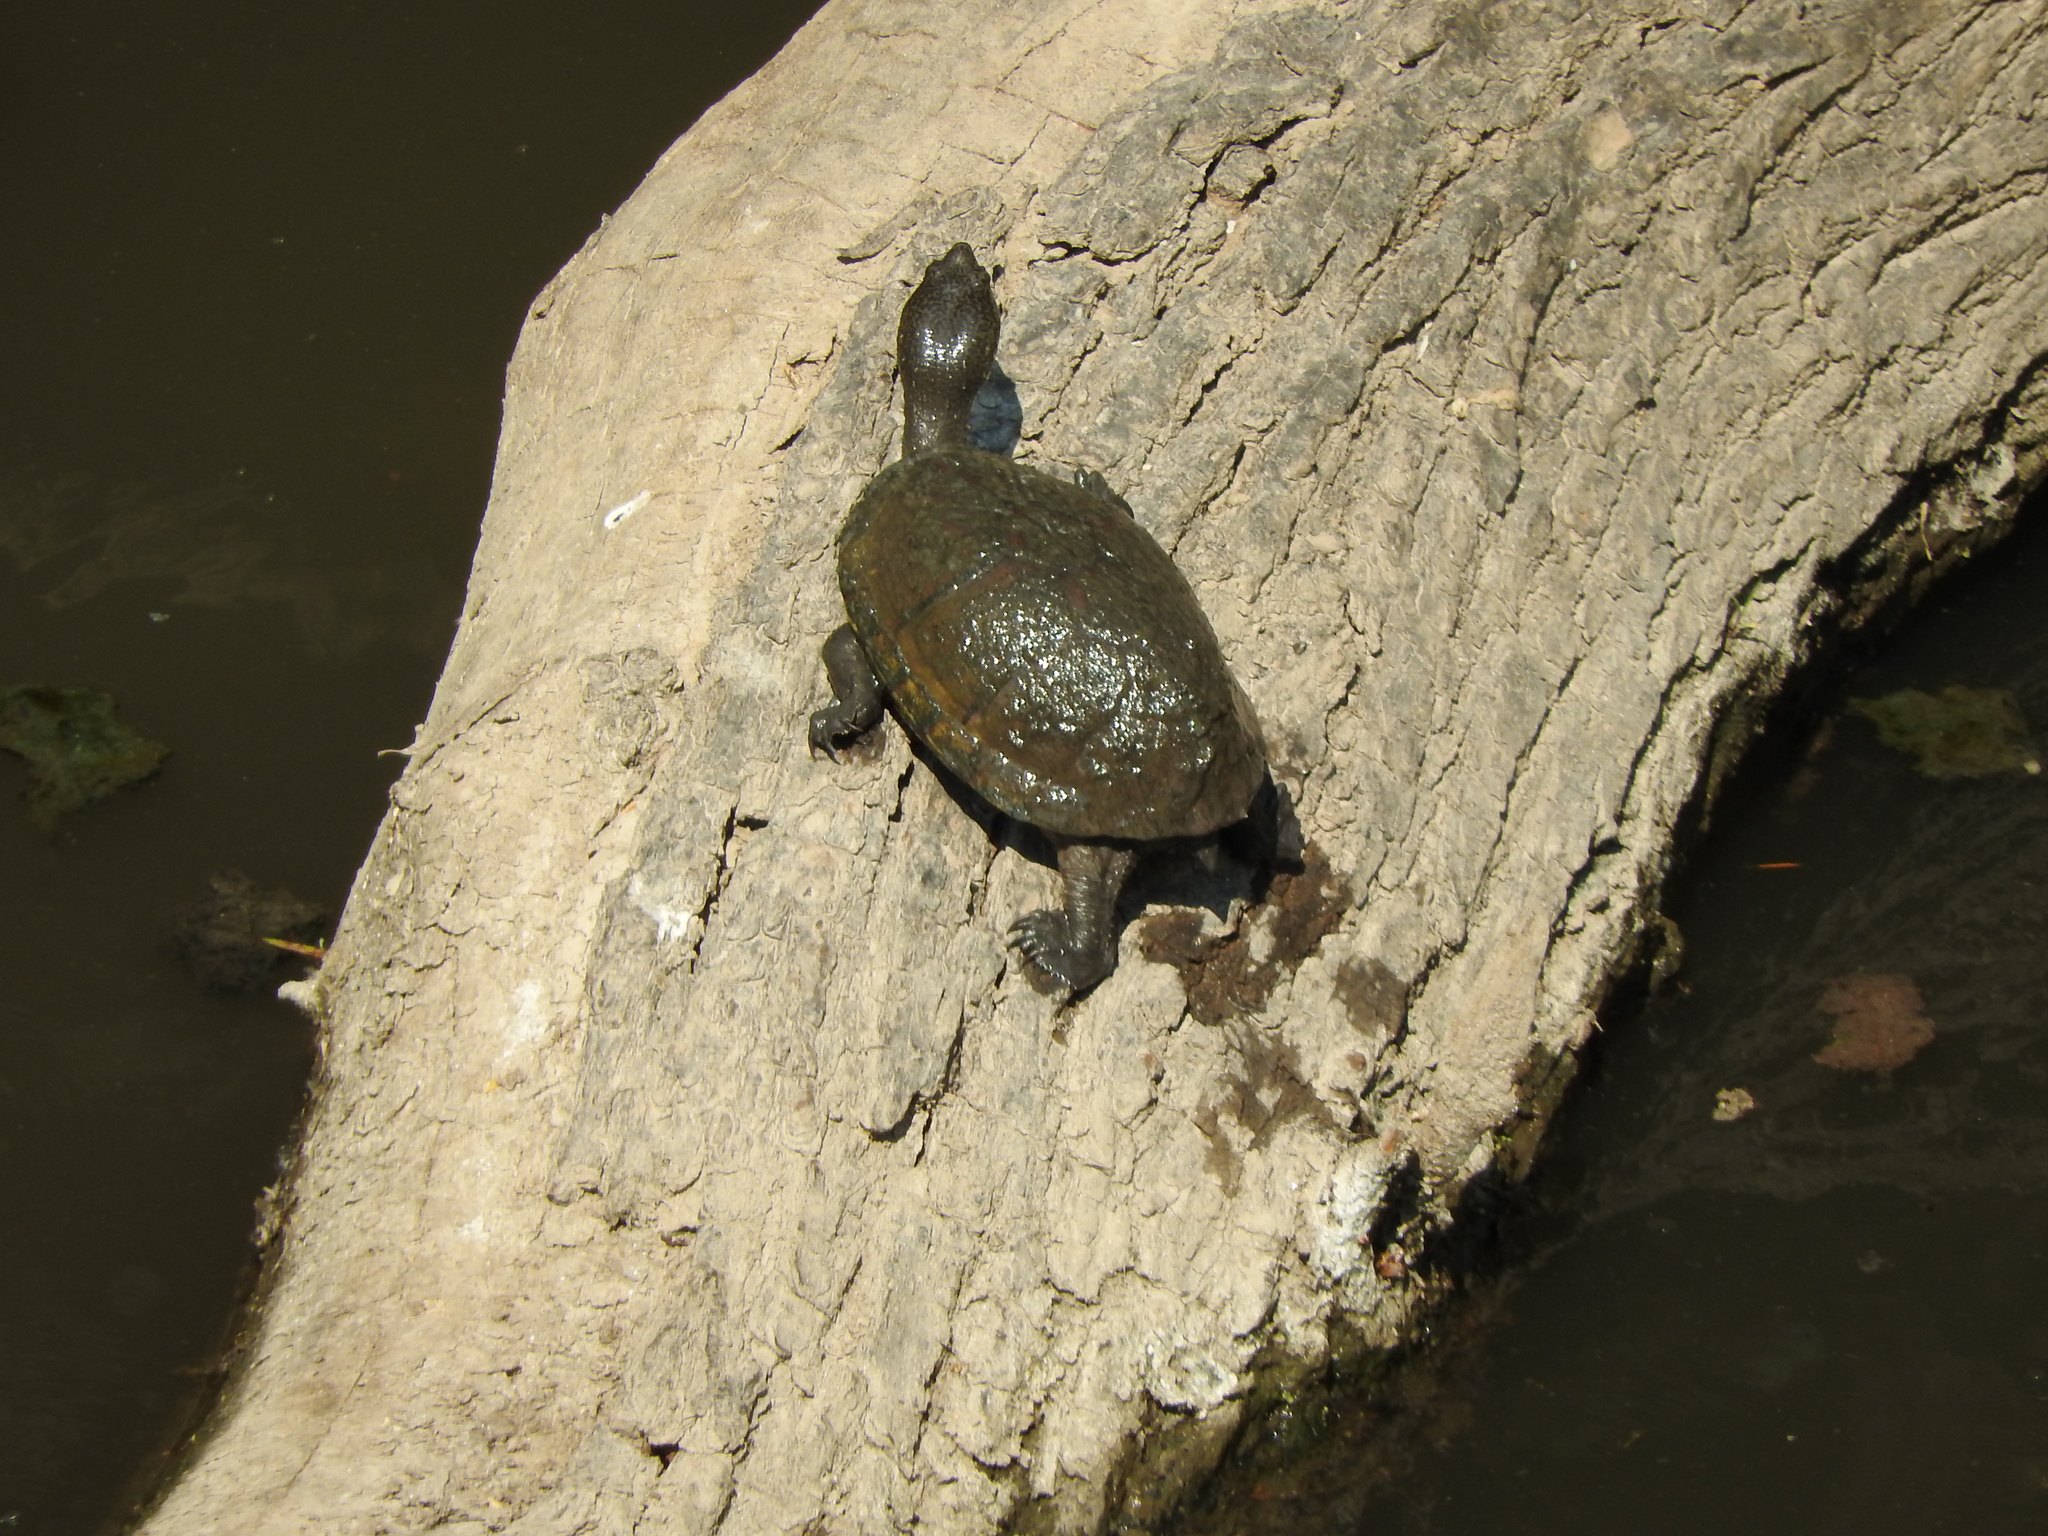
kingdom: Animalia
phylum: Chordata
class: Testudines
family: Kinosternidae
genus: Kinosternon
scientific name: Kinosternon integrum
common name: Mexican mud turtle
